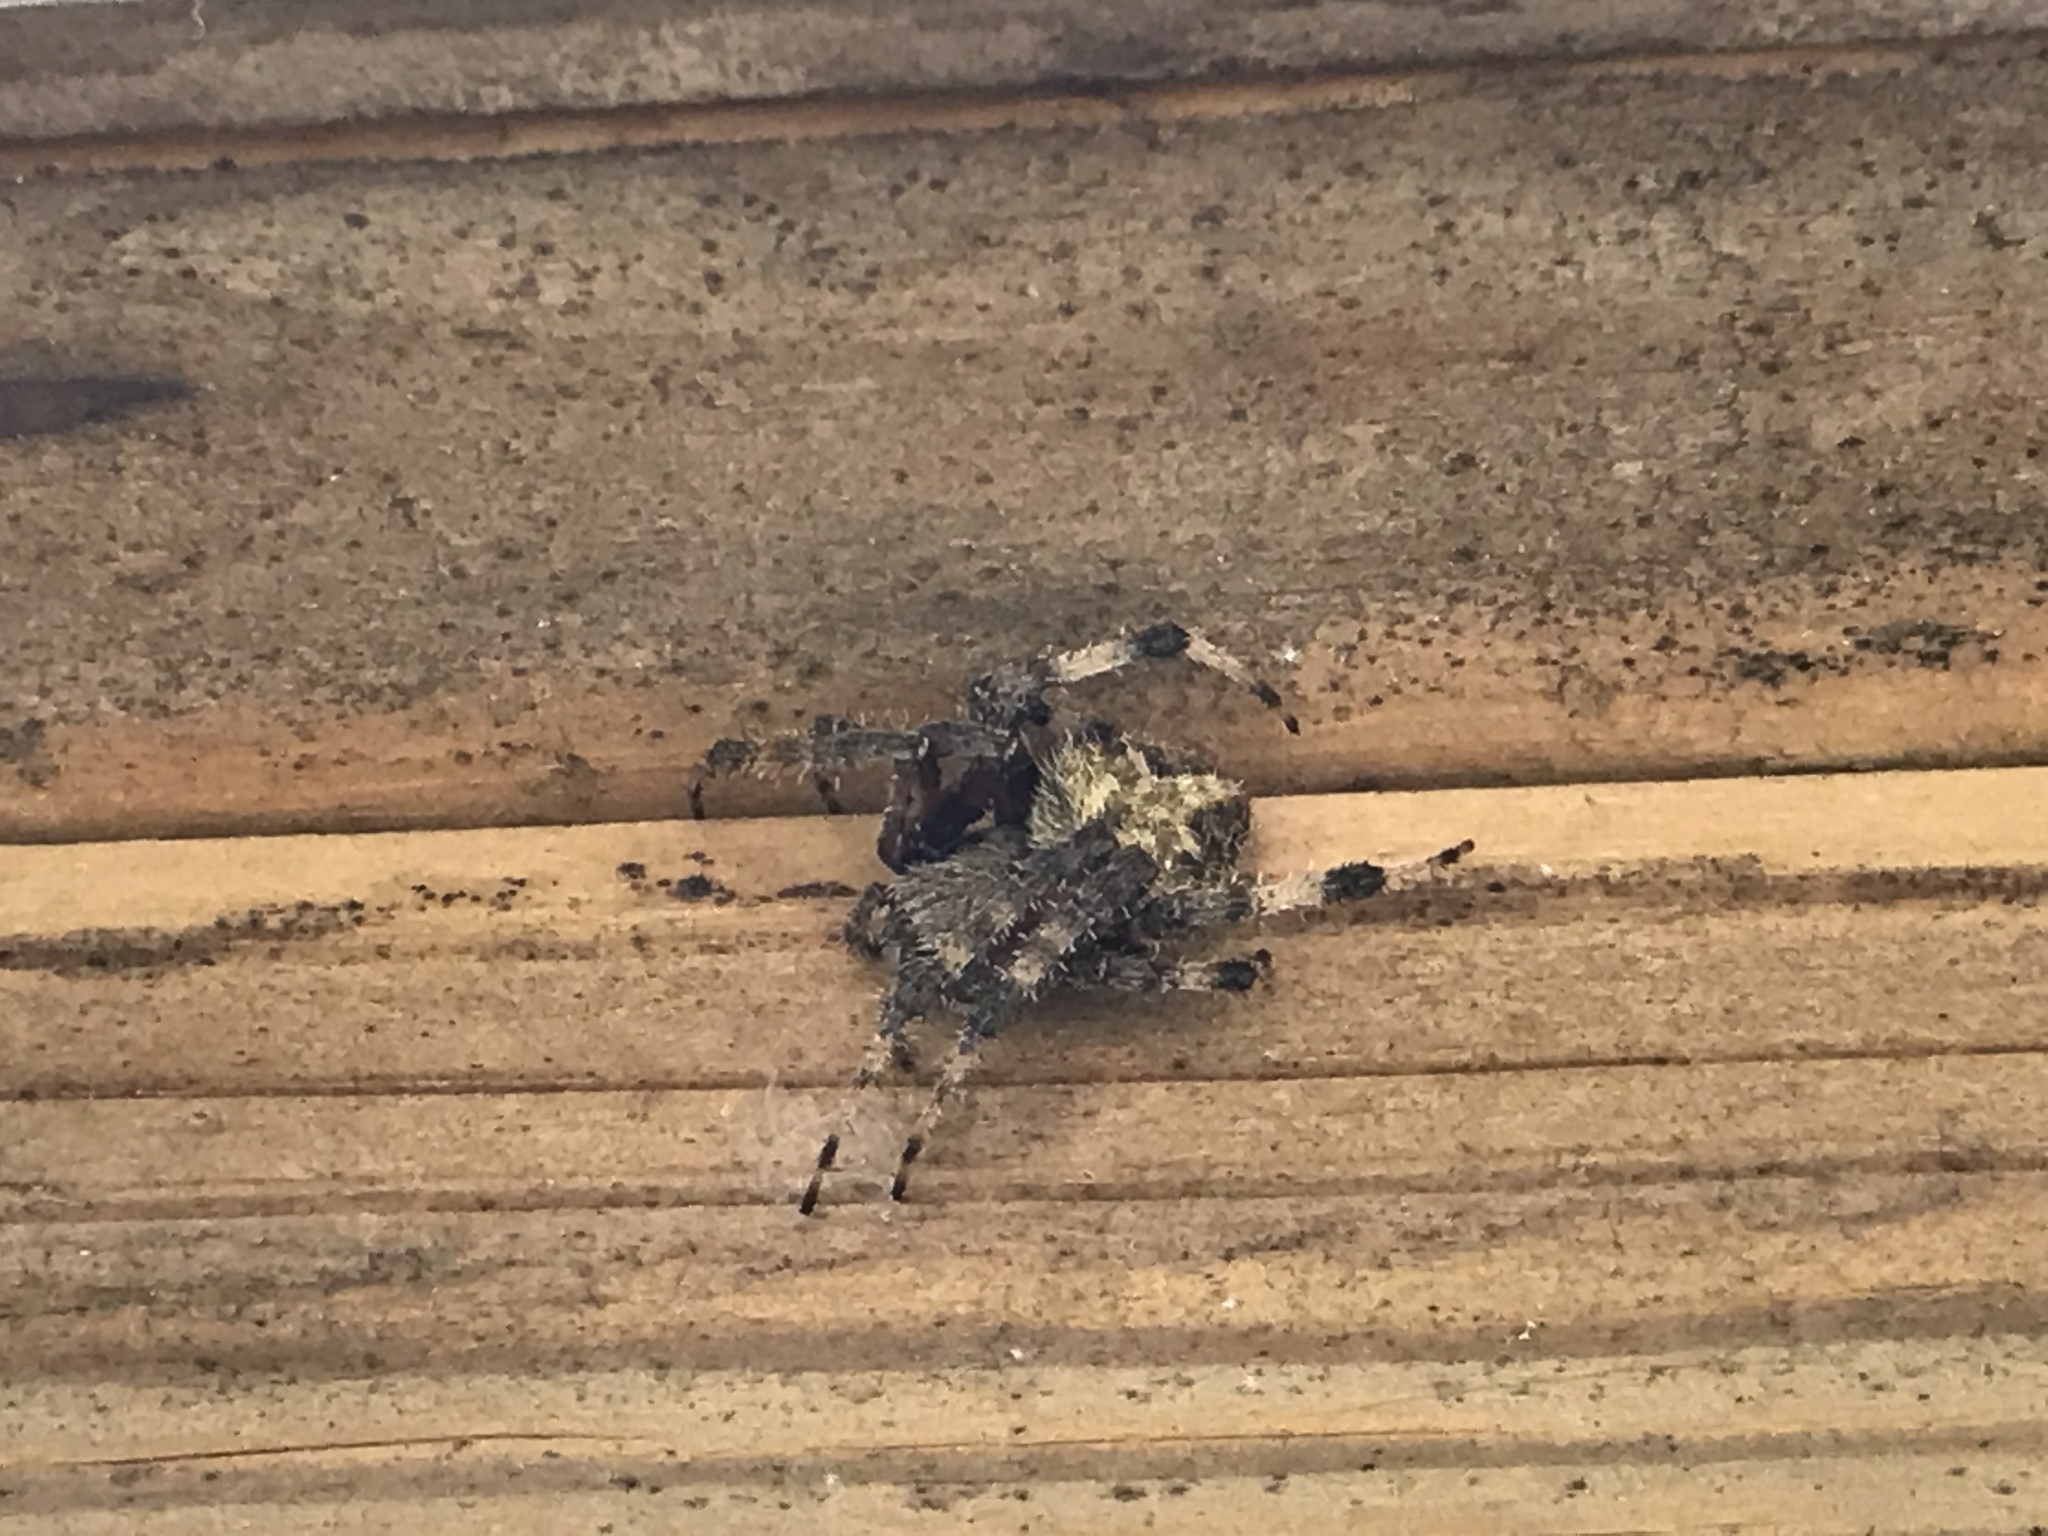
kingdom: Animalia
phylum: Arthropoda
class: Arachnida
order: Araneae
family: Araneidae
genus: Neoscona
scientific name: Neoscona crucifera
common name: Spotted orbweaver
